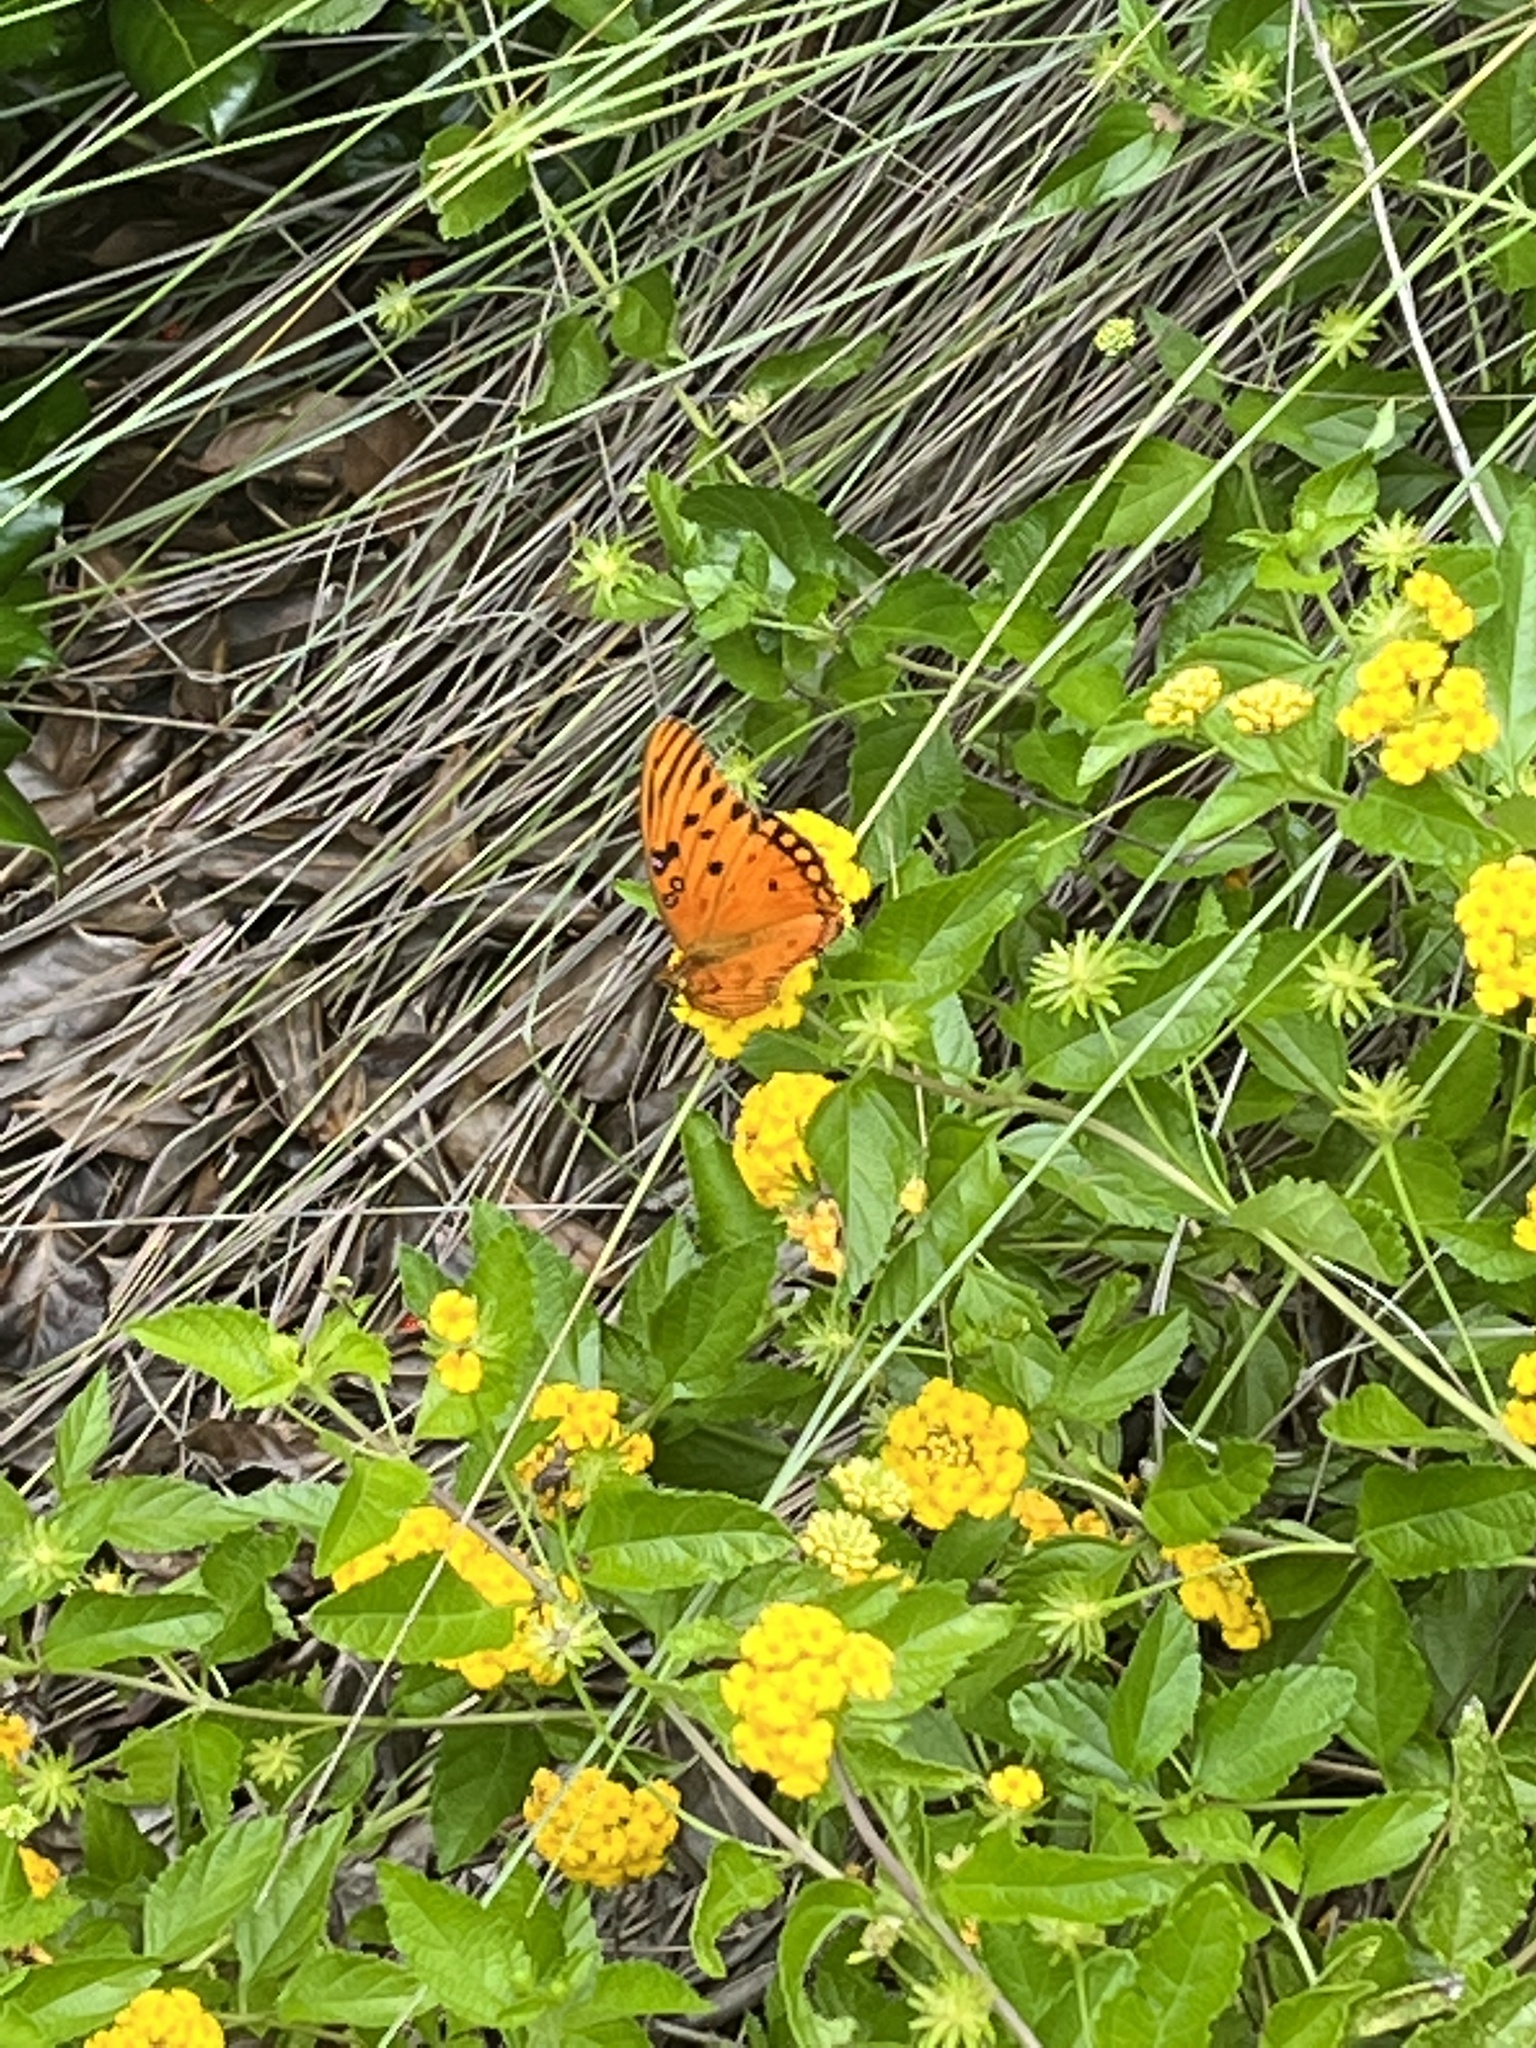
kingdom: Animalia
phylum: Arthropoda
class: Insecta
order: Lepidoptera
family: Nymphalidae
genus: Dione
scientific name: Dione vanillae
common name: Gulf fritillary
